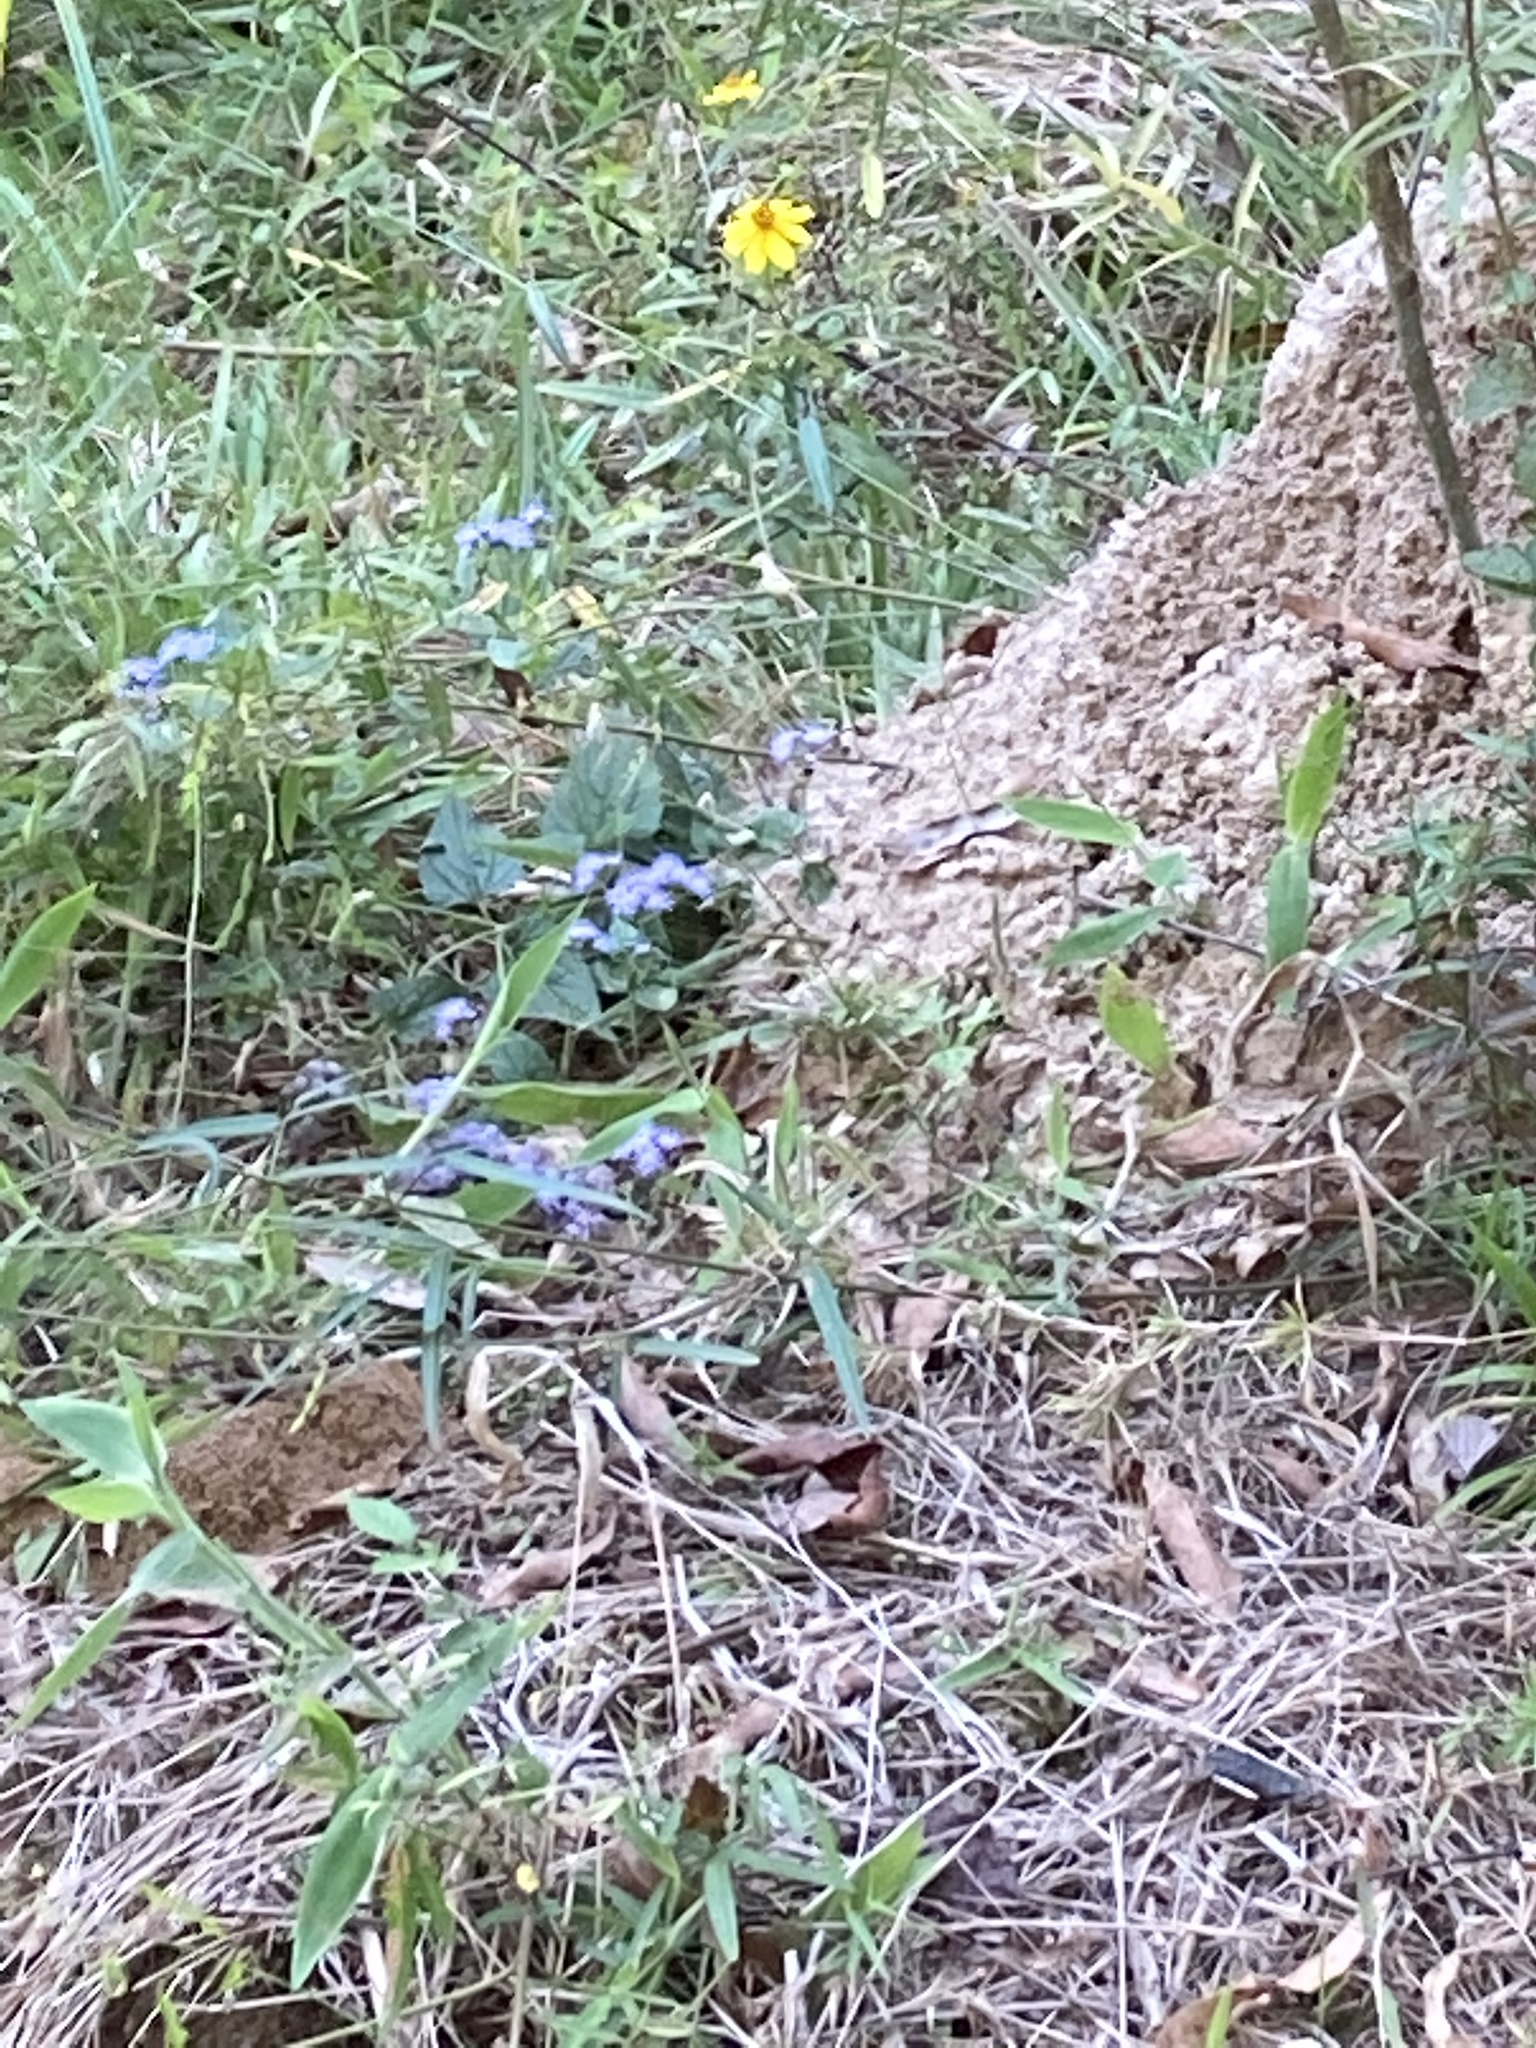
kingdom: Plantae
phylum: Tracheophyta
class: Magnoliopsida
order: Asterales
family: Asteraceae
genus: Conoclinium
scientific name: Conoclinium coelestinum
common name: Blue mistflower
